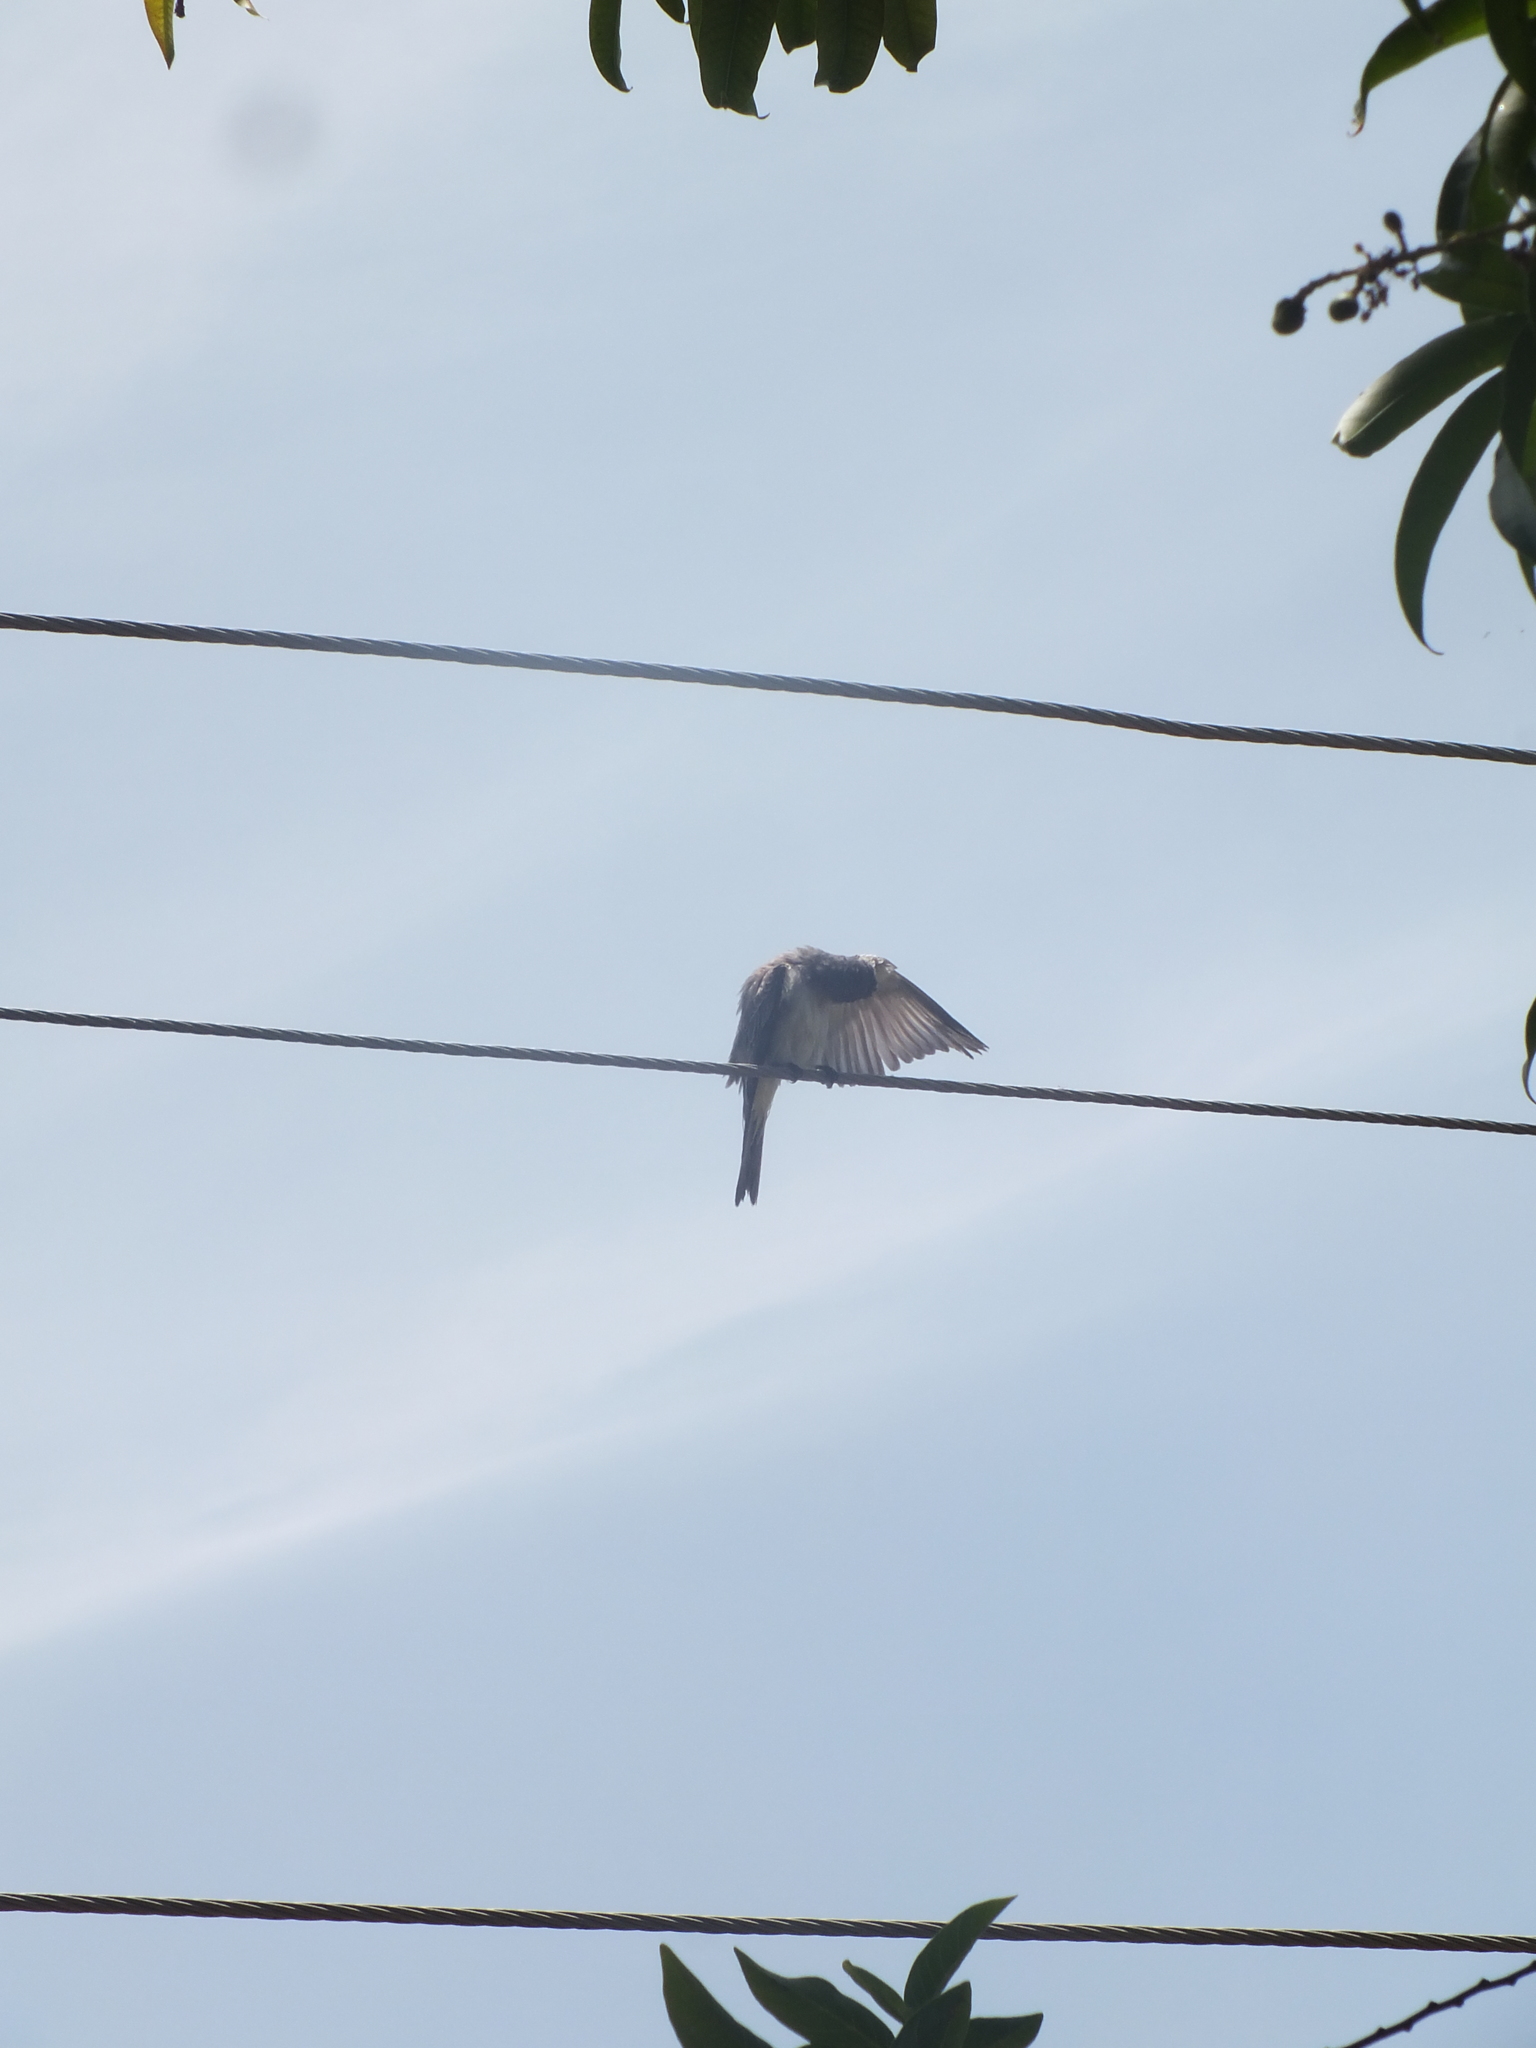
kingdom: Animalia
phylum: Chordata
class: Aves
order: Passeriformes
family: Tyrannidae
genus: Tyrannus
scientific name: Tyrannus dominicensis
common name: Gray kingbird
